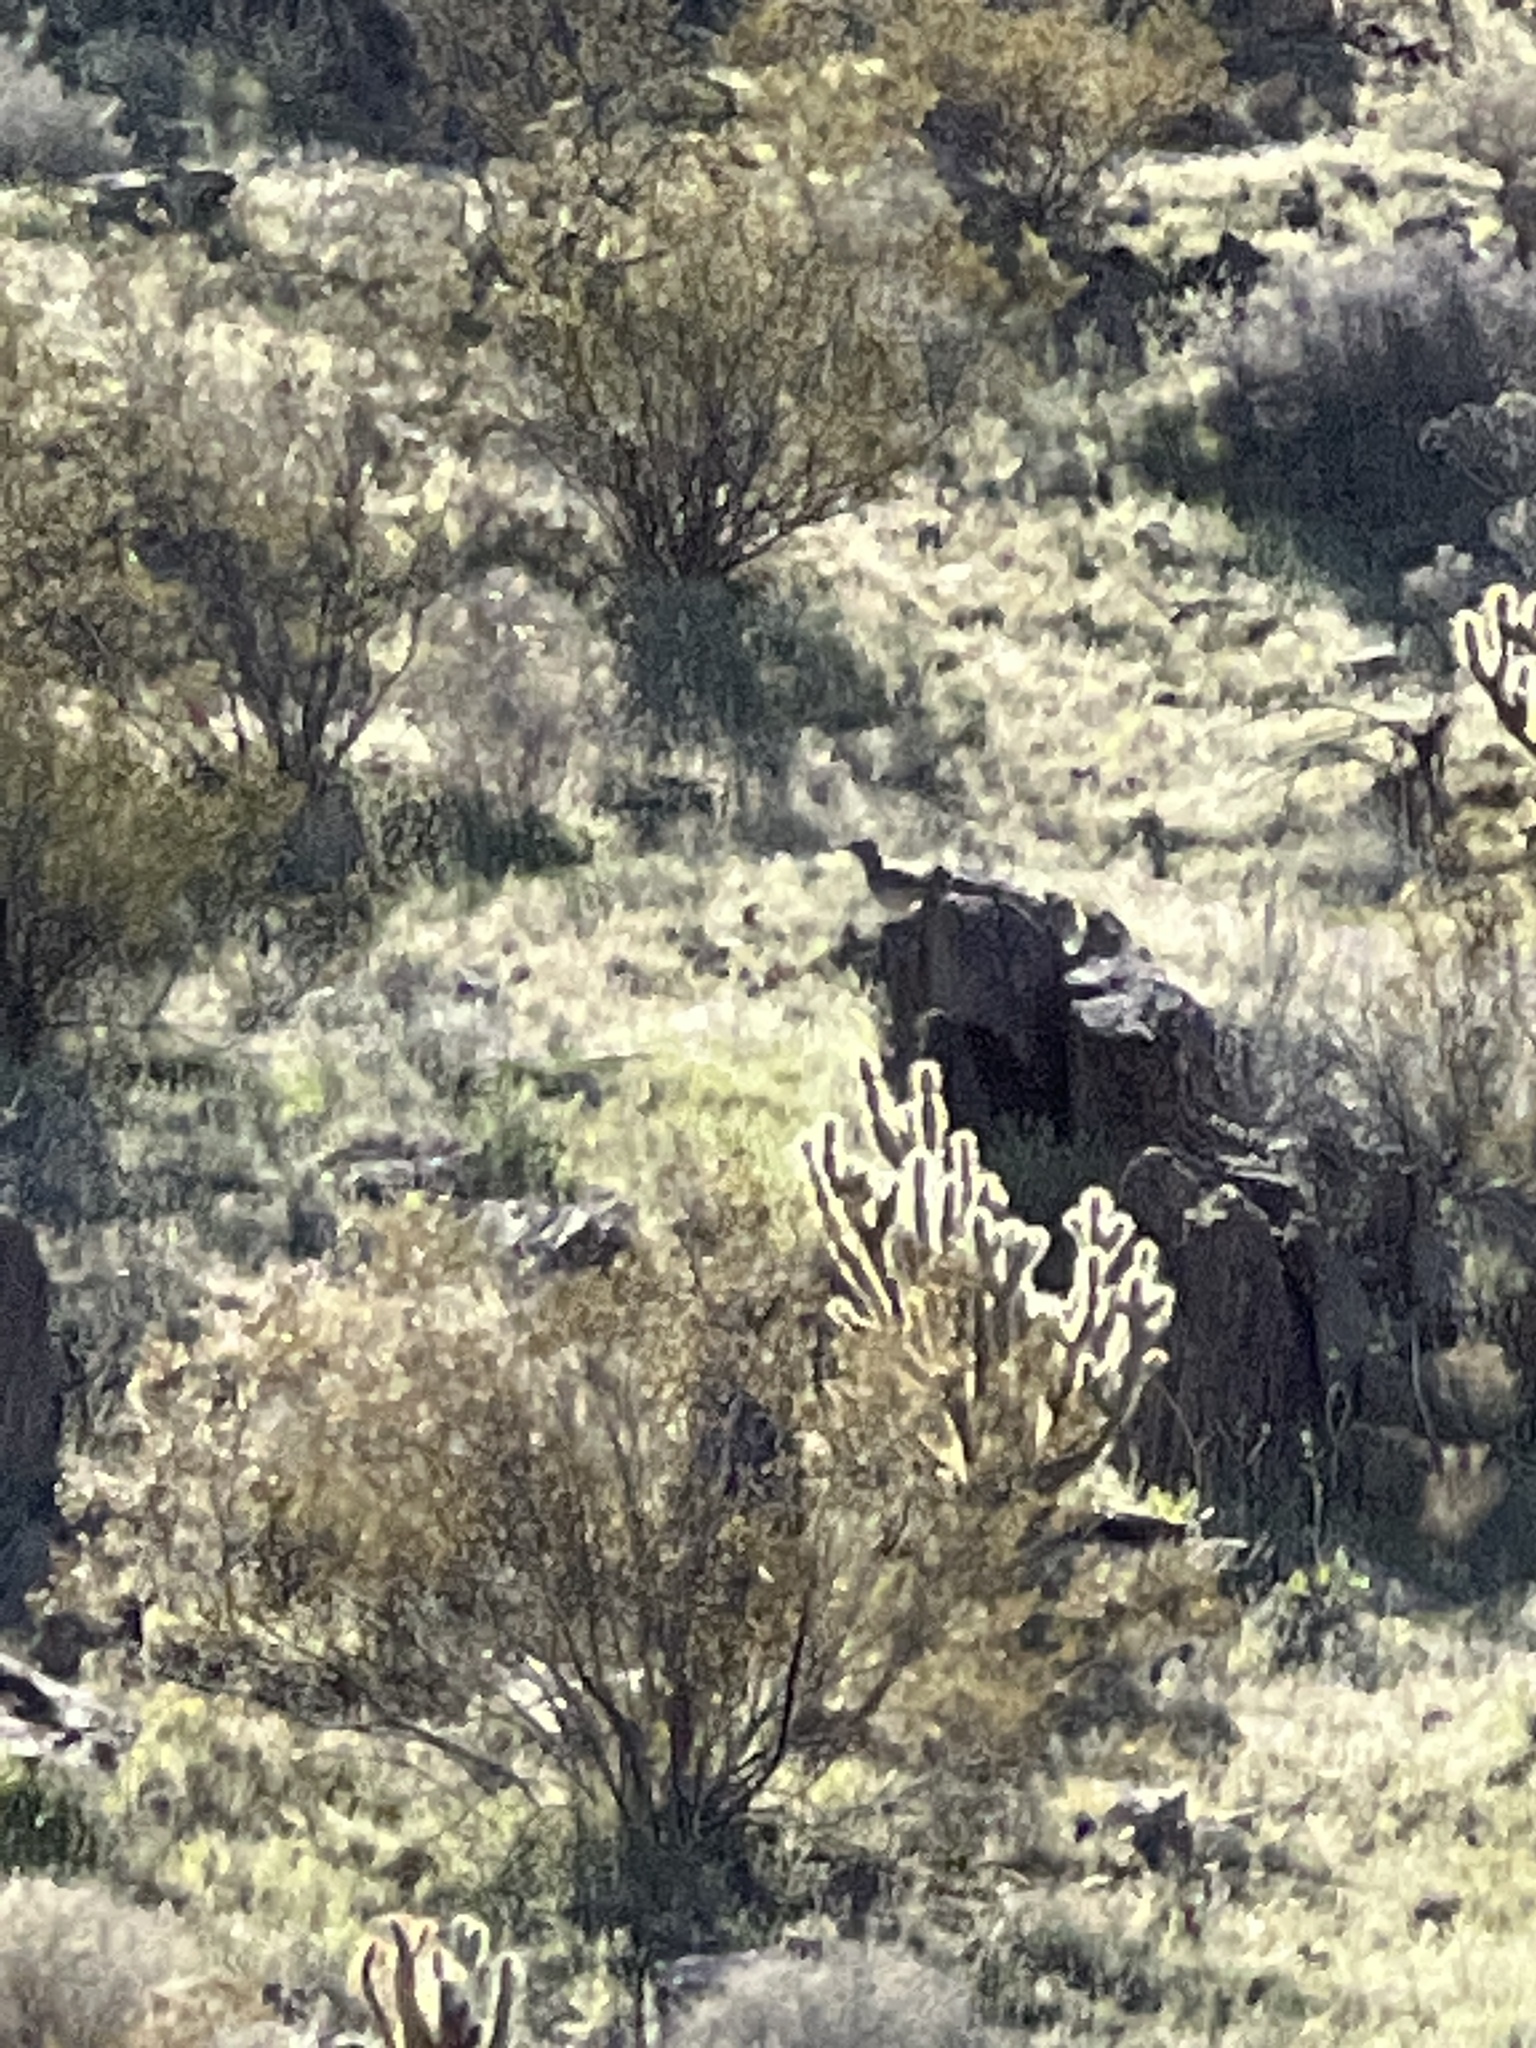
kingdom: Animalia
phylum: Chordata
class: Aves
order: Cuculiformes
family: Cuculidae
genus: Geococcyx
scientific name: Geococcyx californianus
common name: Greater roadrunner
